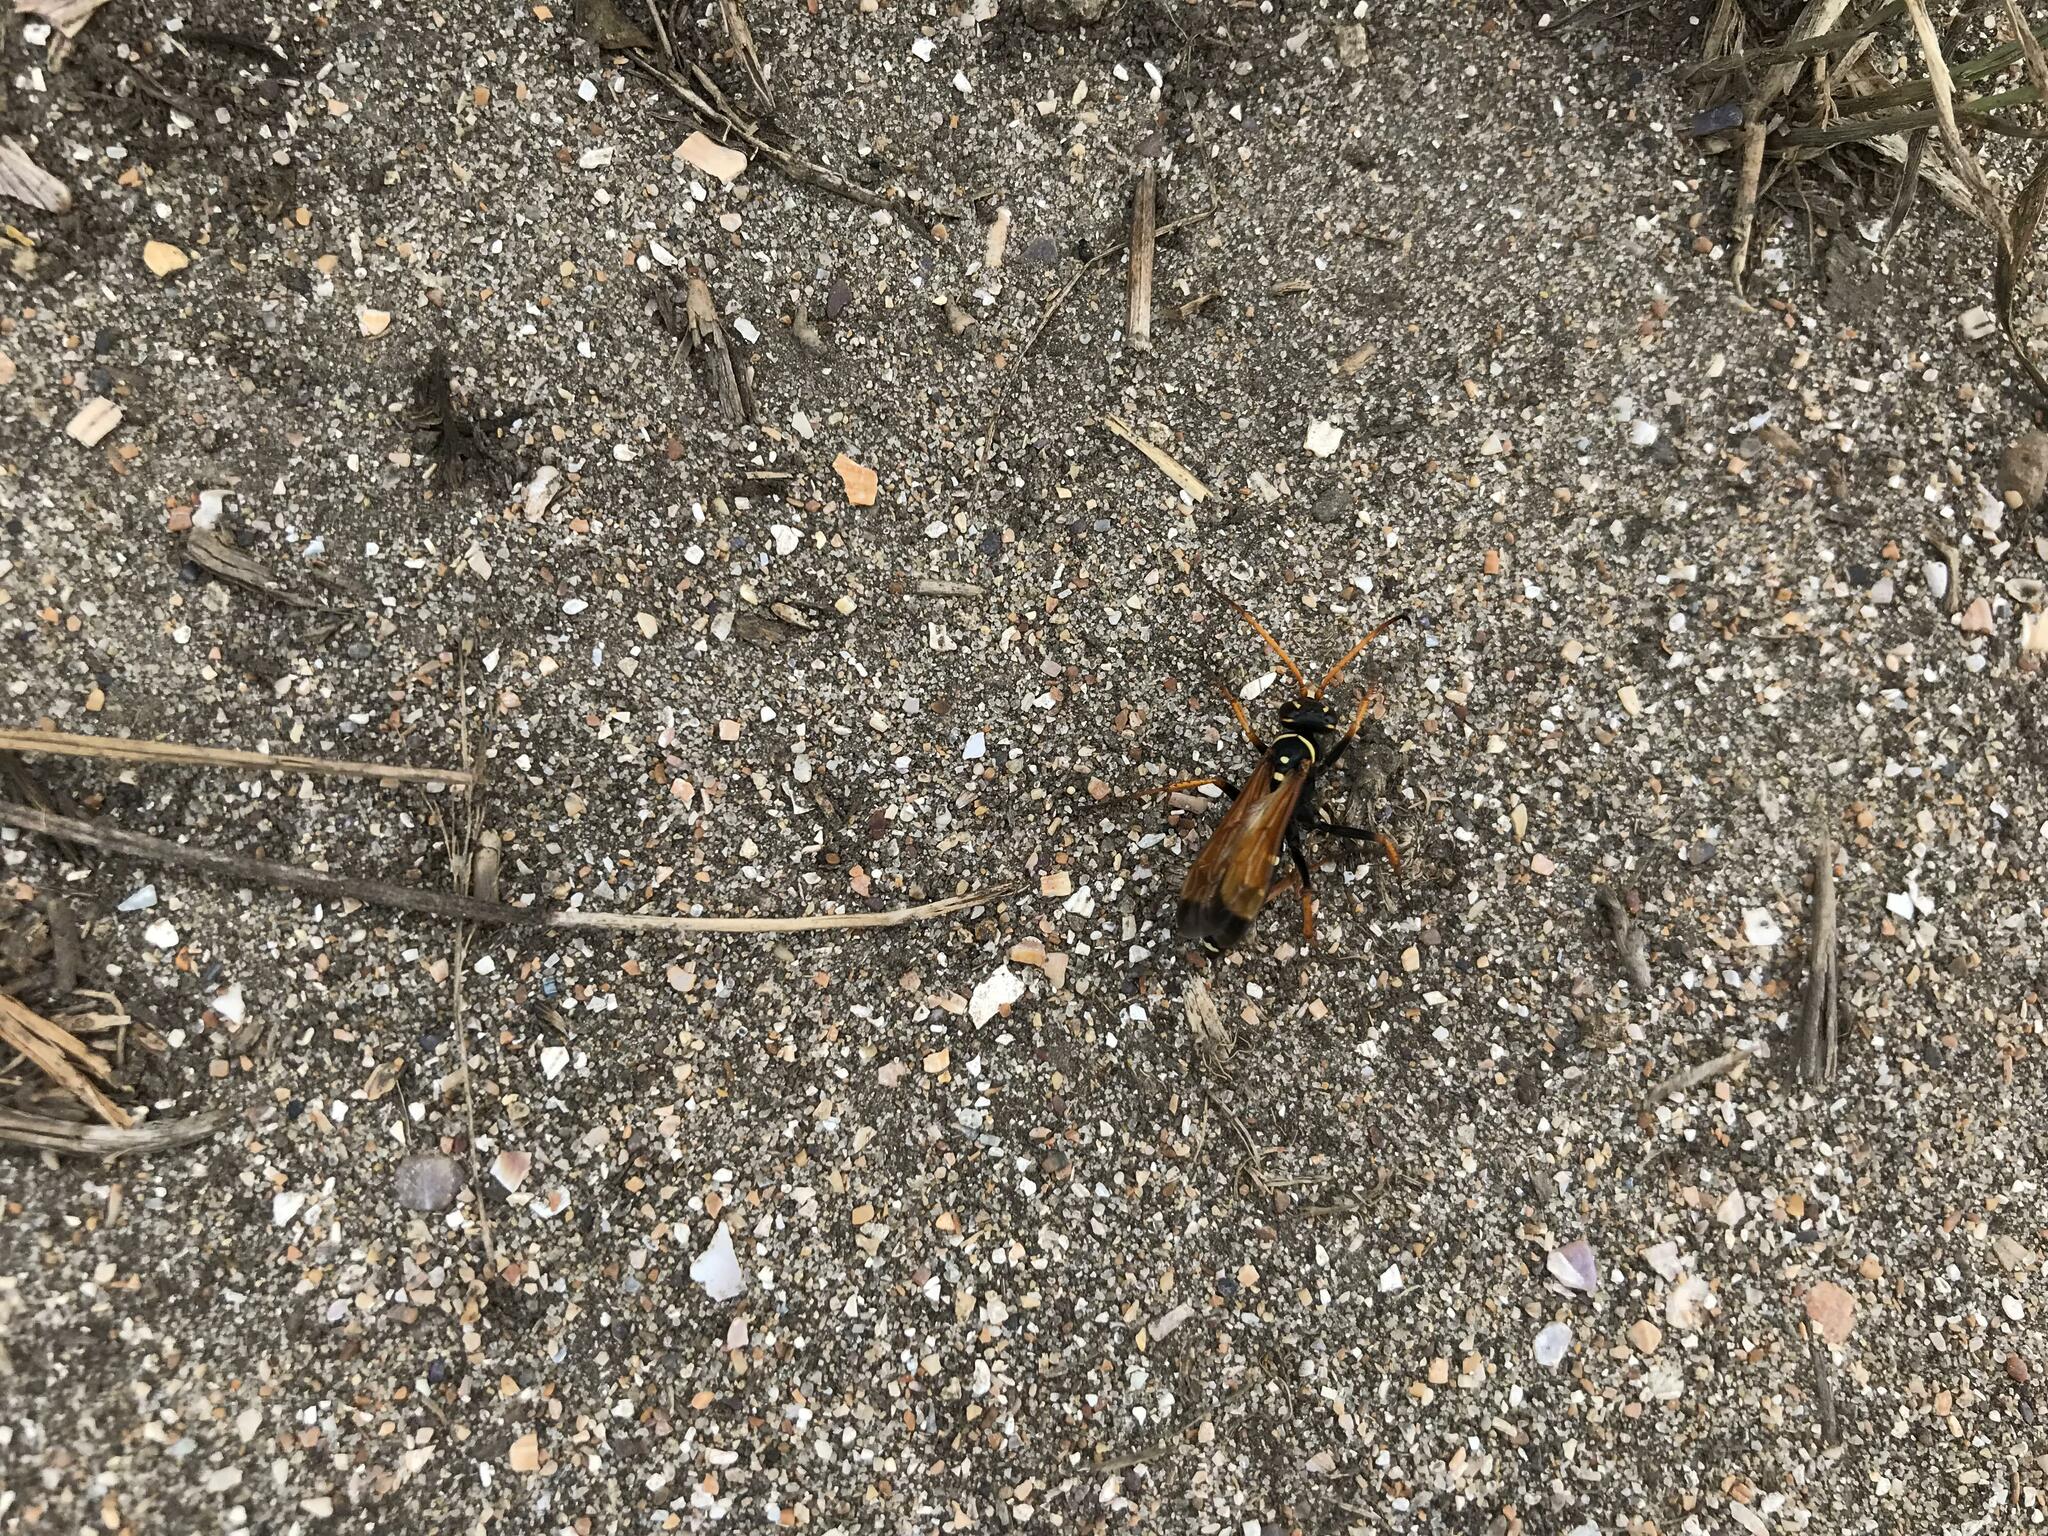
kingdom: Animalia
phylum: Arthropoda
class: Insecta
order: Hymenoptera
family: Pompilidae
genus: Parabatozonus
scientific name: Parabatozonus lacerticida
